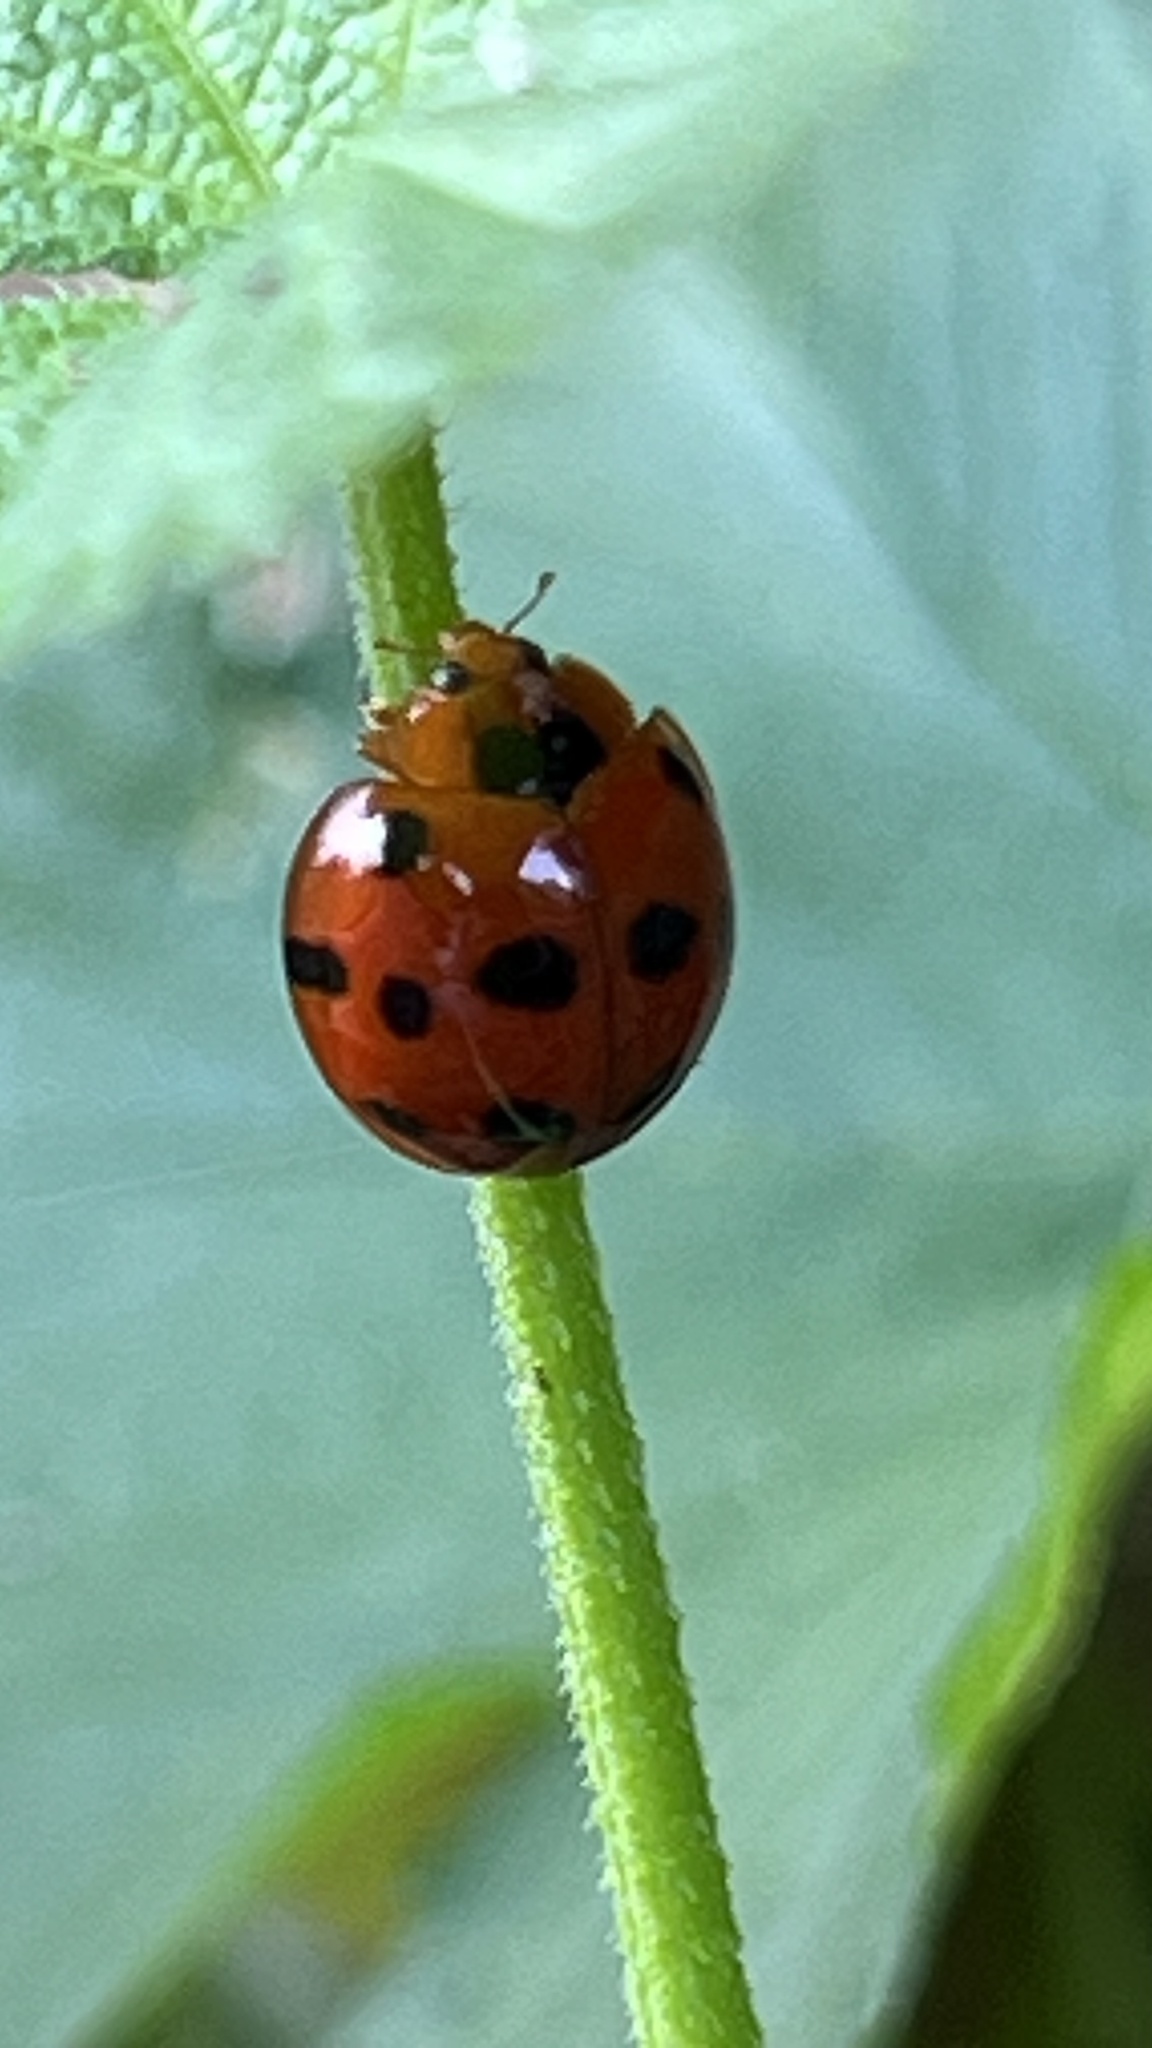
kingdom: Animalia
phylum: Arthropoda
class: Insecta
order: Coleoptera
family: Coccinellidae
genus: Harmonia
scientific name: Harmonia dimidiata
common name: Ladybird beetle
